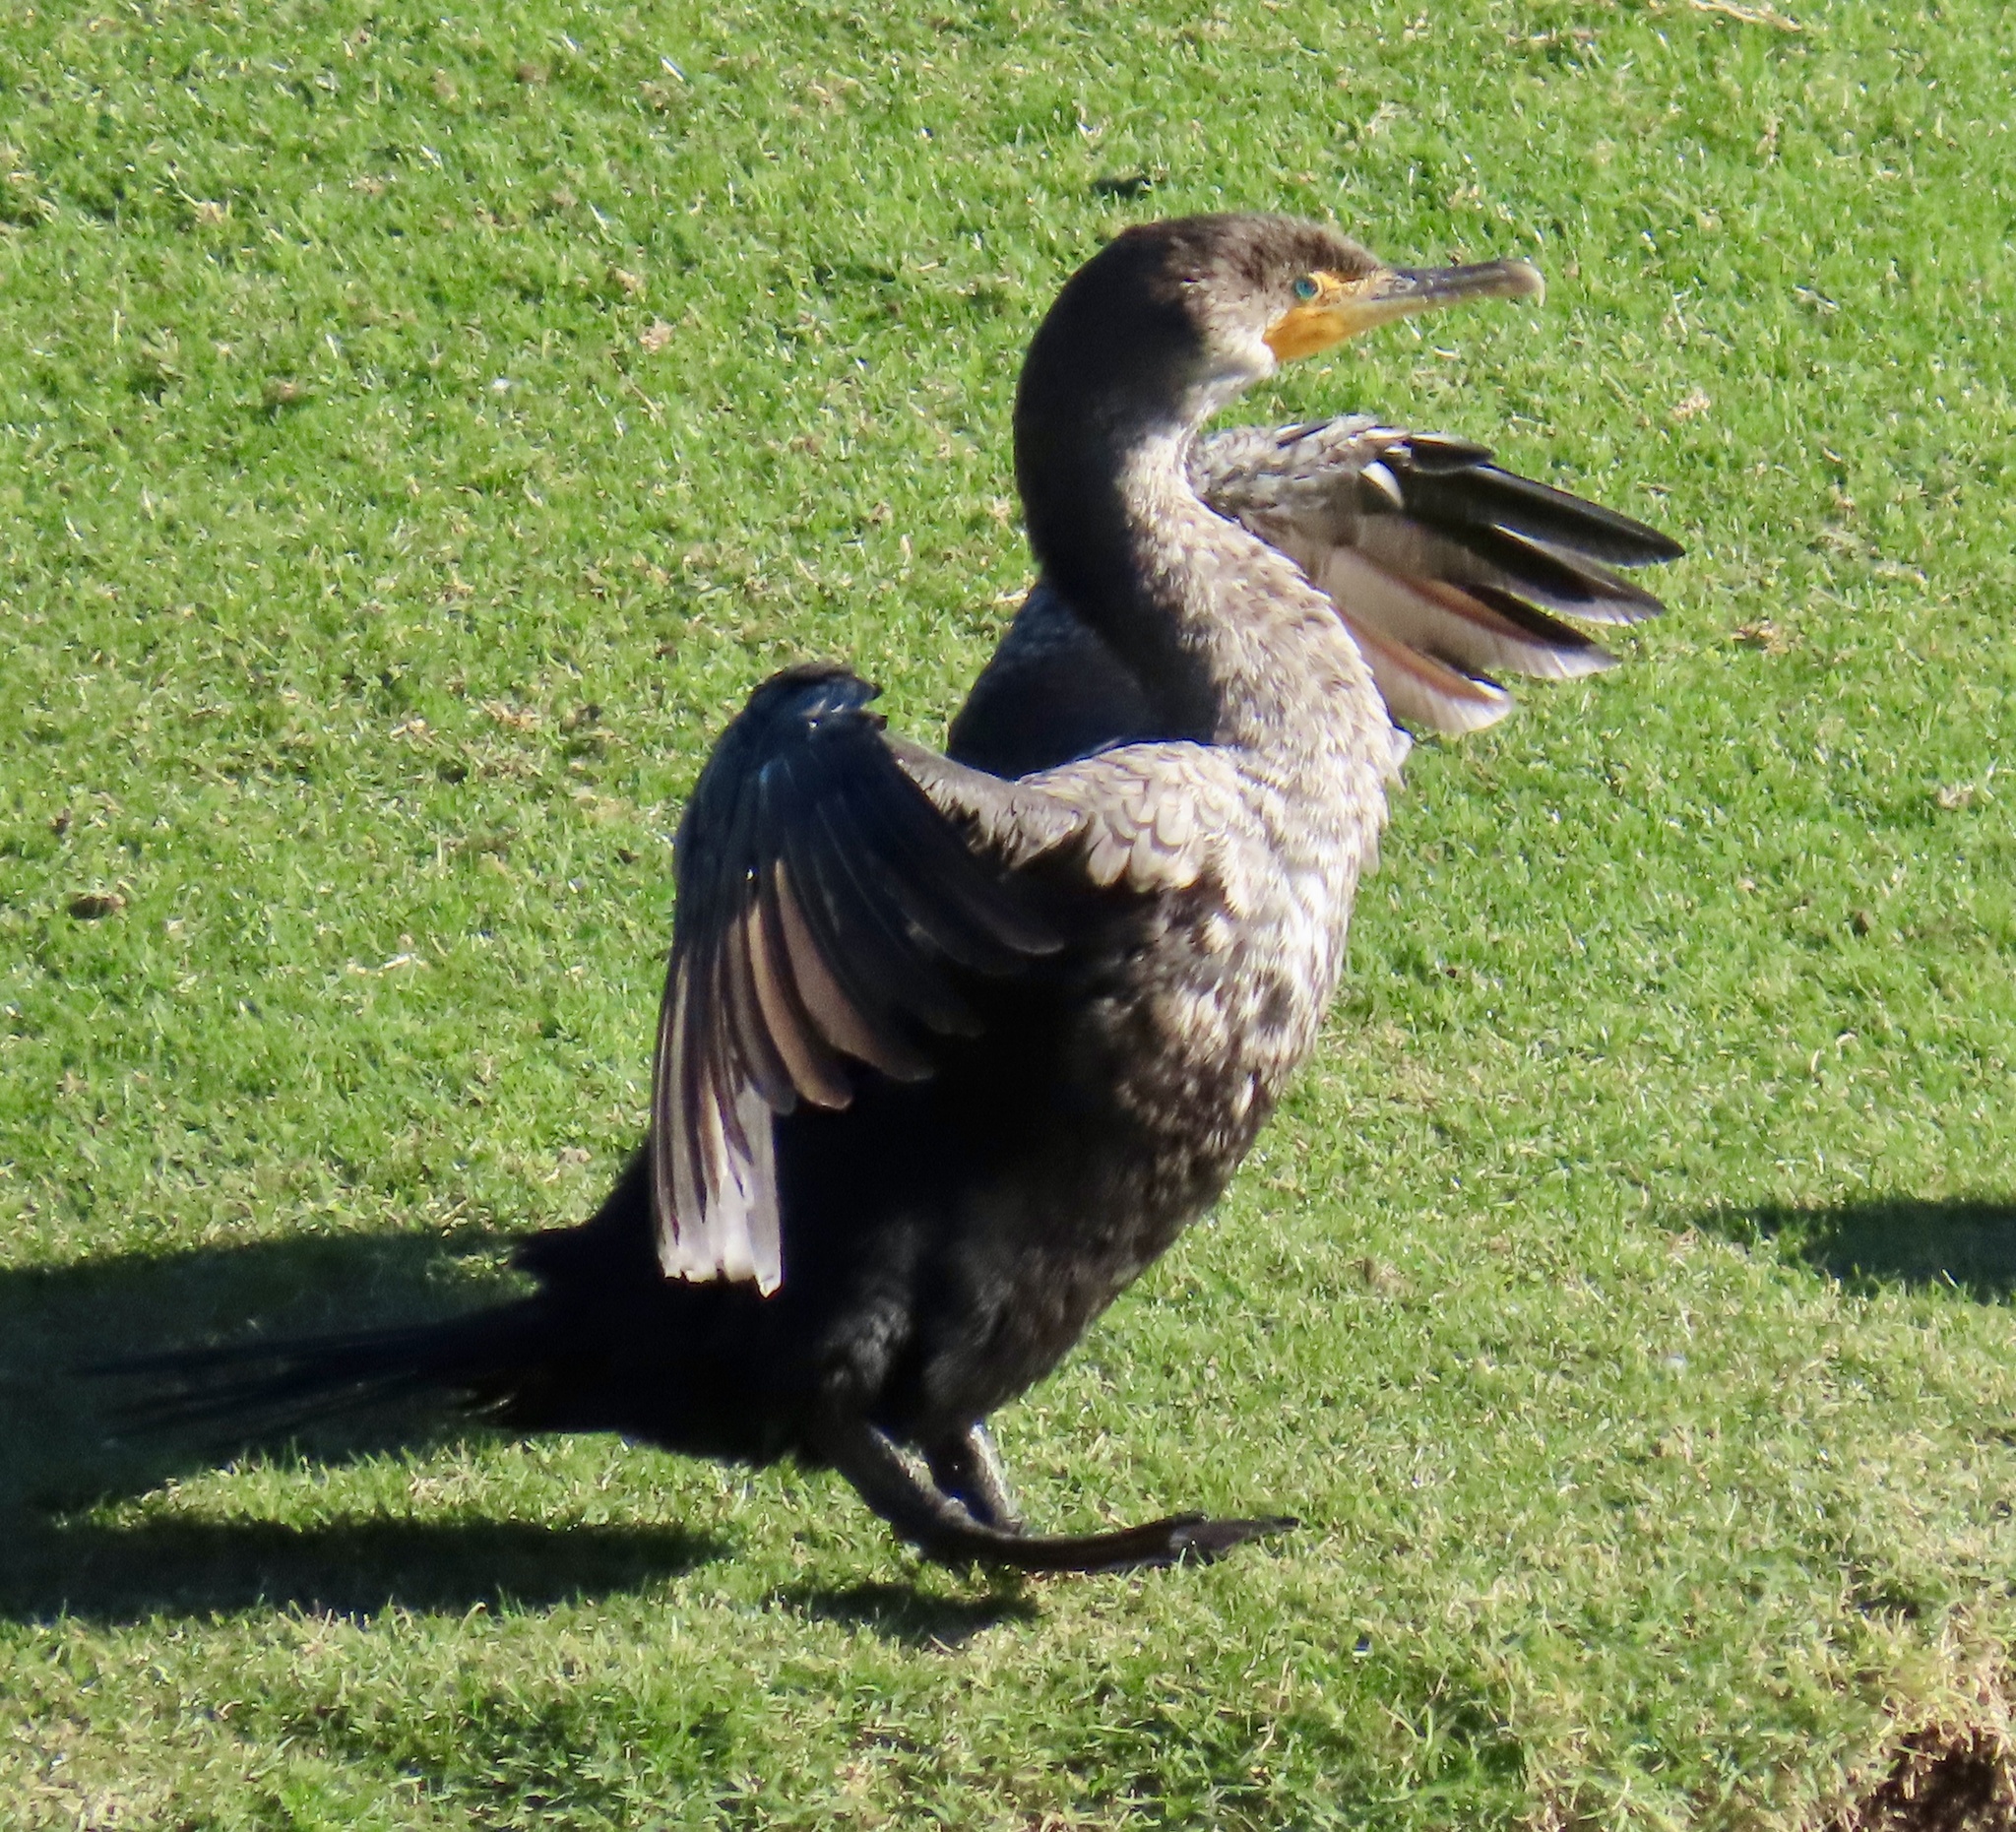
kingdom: Animalia
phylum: Chordata
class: Aves
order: Suliformes
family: Phalacrocoracidae
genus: Phalacrocorax
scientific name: Phalacrocorax auritus
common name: Double-crested cormorant
